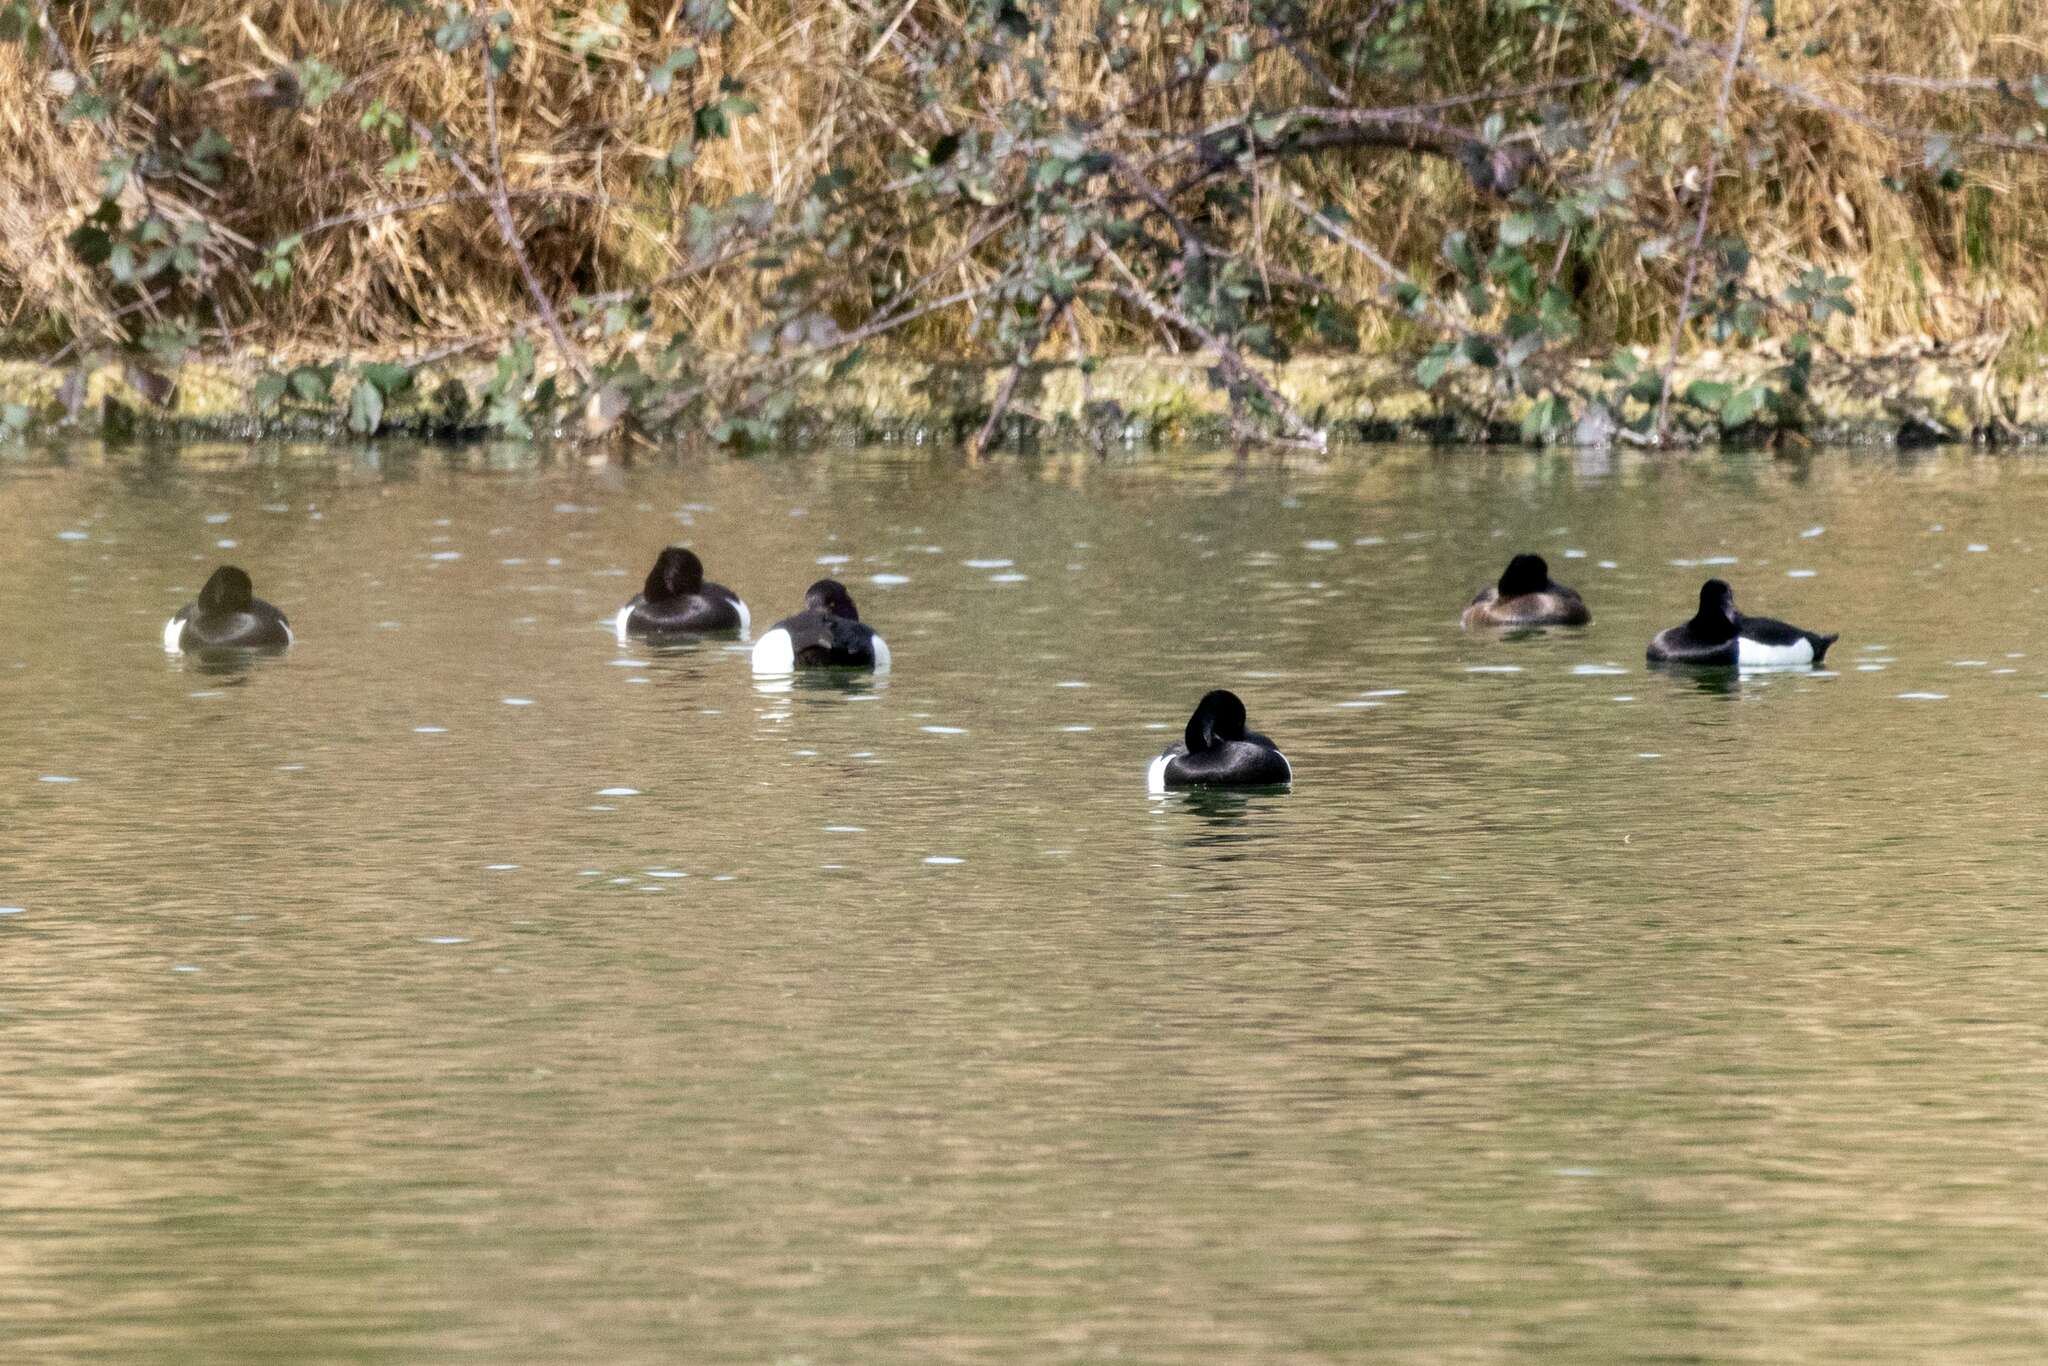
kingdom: Animalia
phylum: Chordata
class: Aves
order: Anseriformes
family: Anatidae
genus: Aythya
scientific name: Aythya fuligula
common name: Tufted duck
